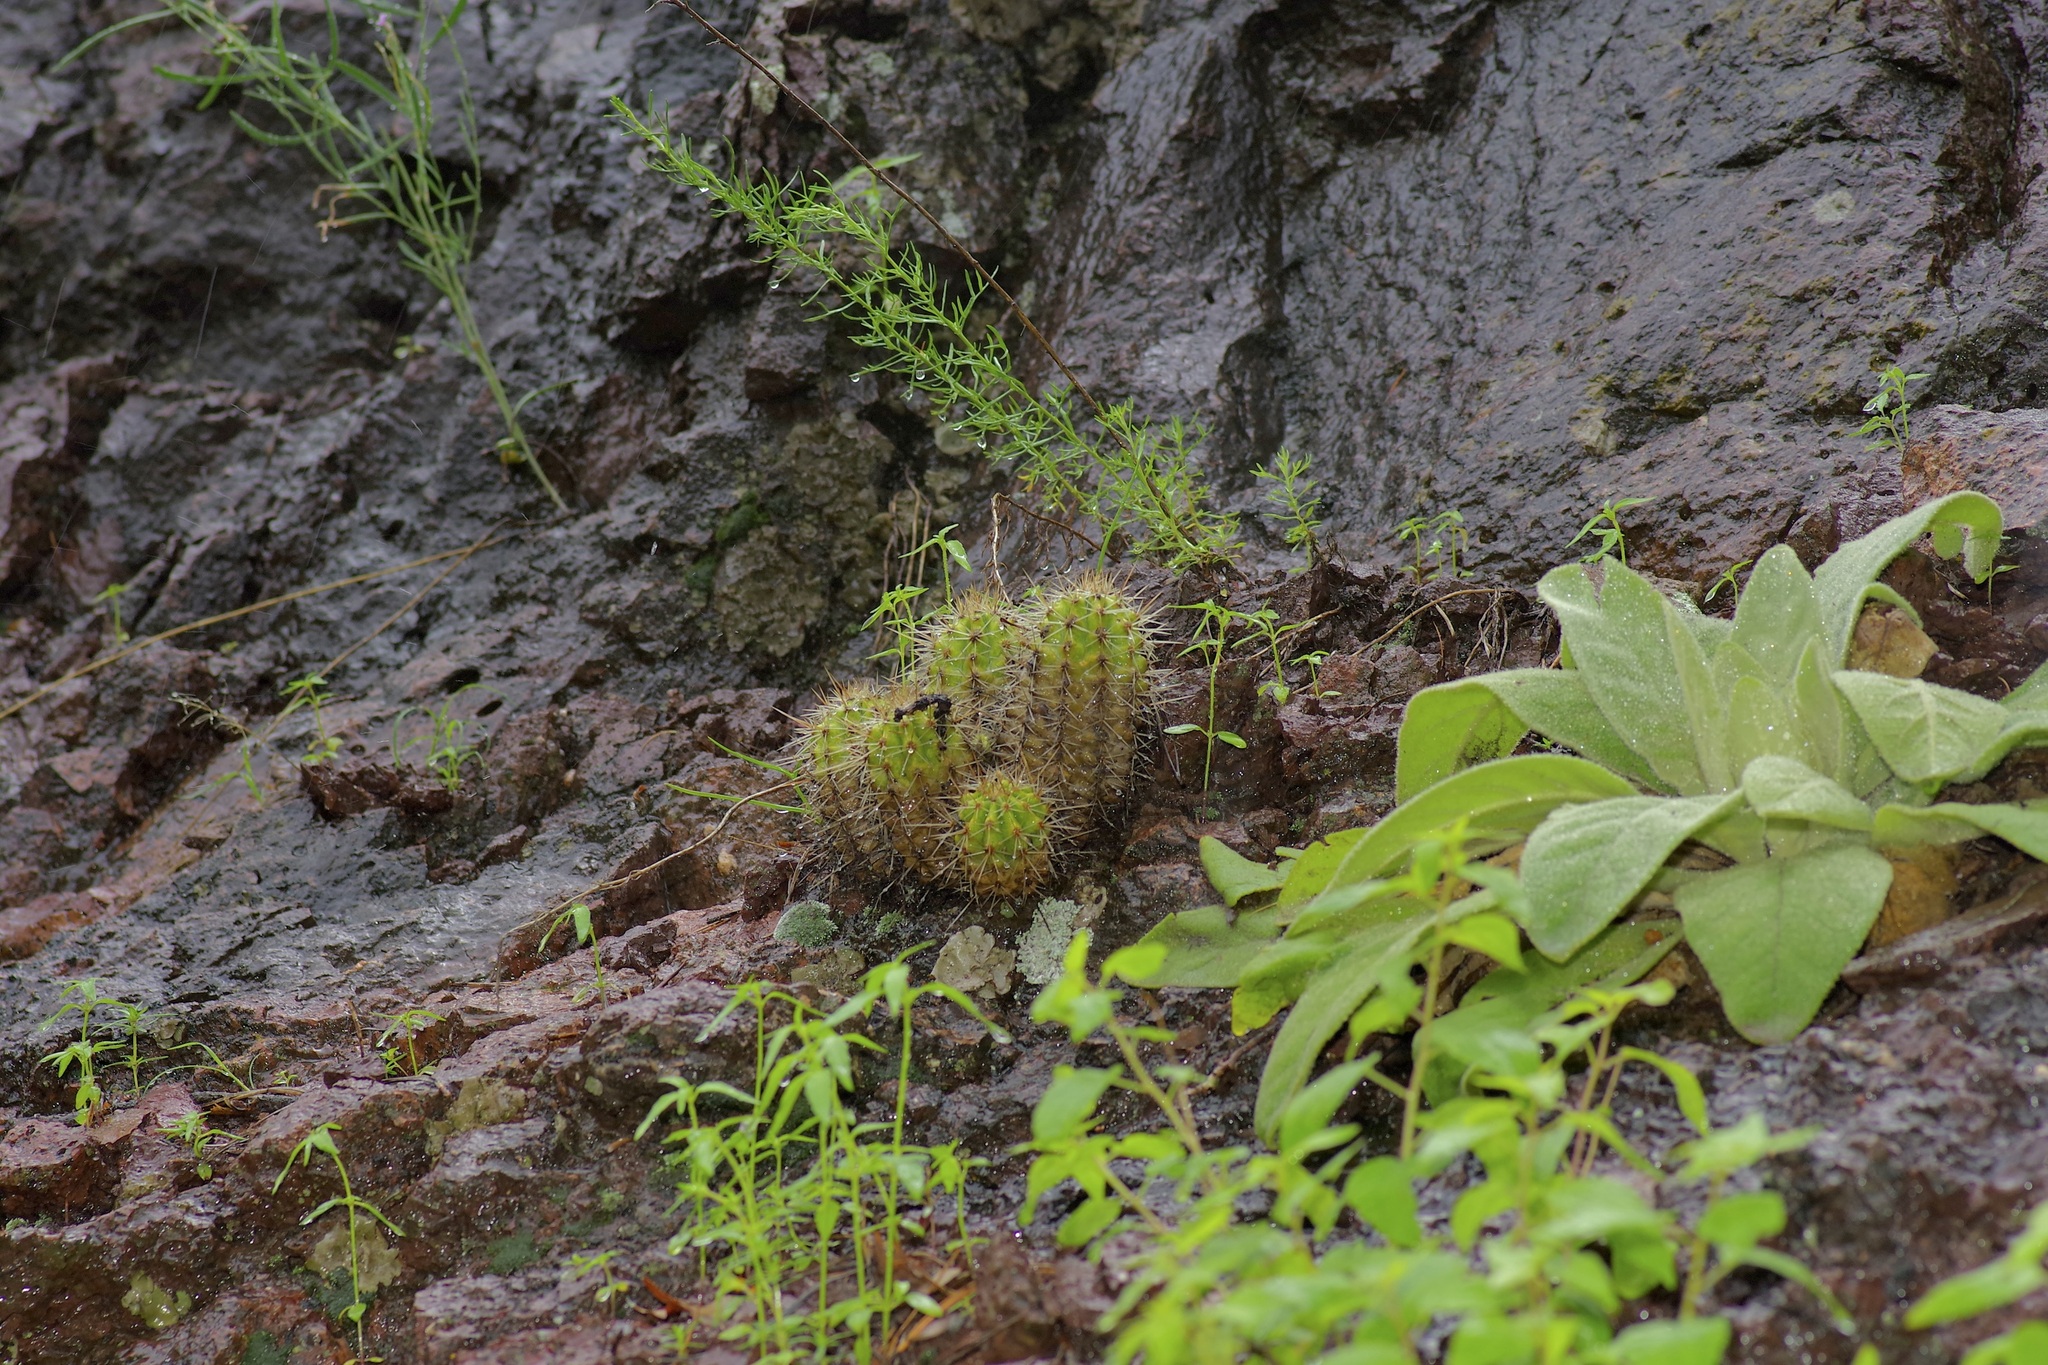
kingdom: Plantae
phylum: Tracheophyta
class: Magnoliopsida
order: Caryophyllales
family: Cactaceae
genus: Echinocereus
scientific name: Echinocereus arizonicus
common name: Arizona hedgehog cactus
